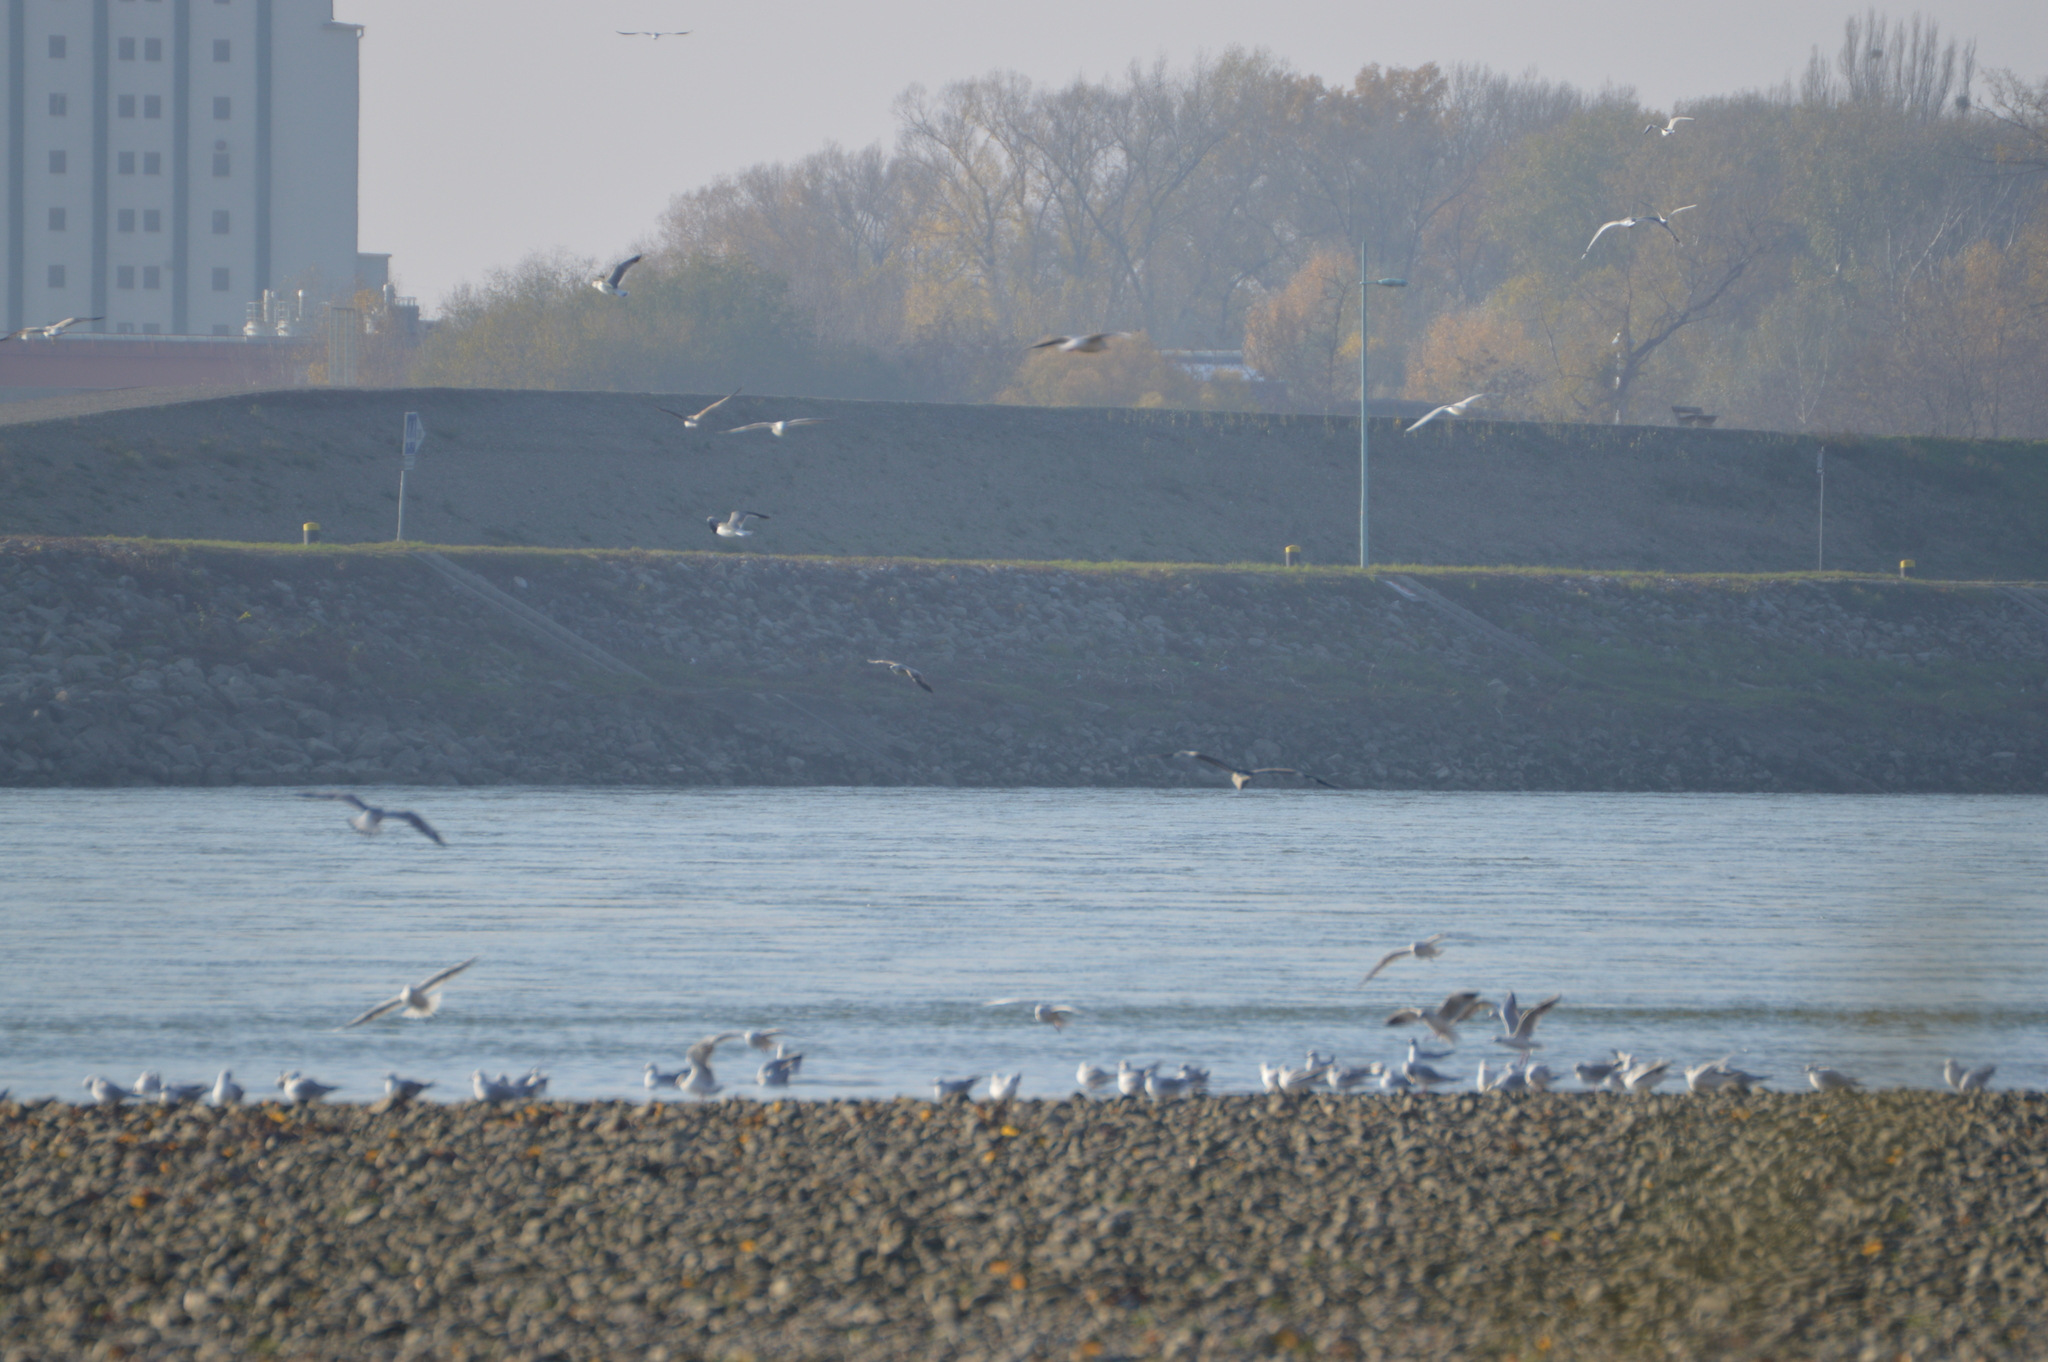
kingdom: Animalia
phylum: Chordata
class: Aves
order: Charadriiformes
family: Laridae
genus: Chroicocephalus
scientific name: Chroicocephalus ridibundus
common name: Black-headed gull
